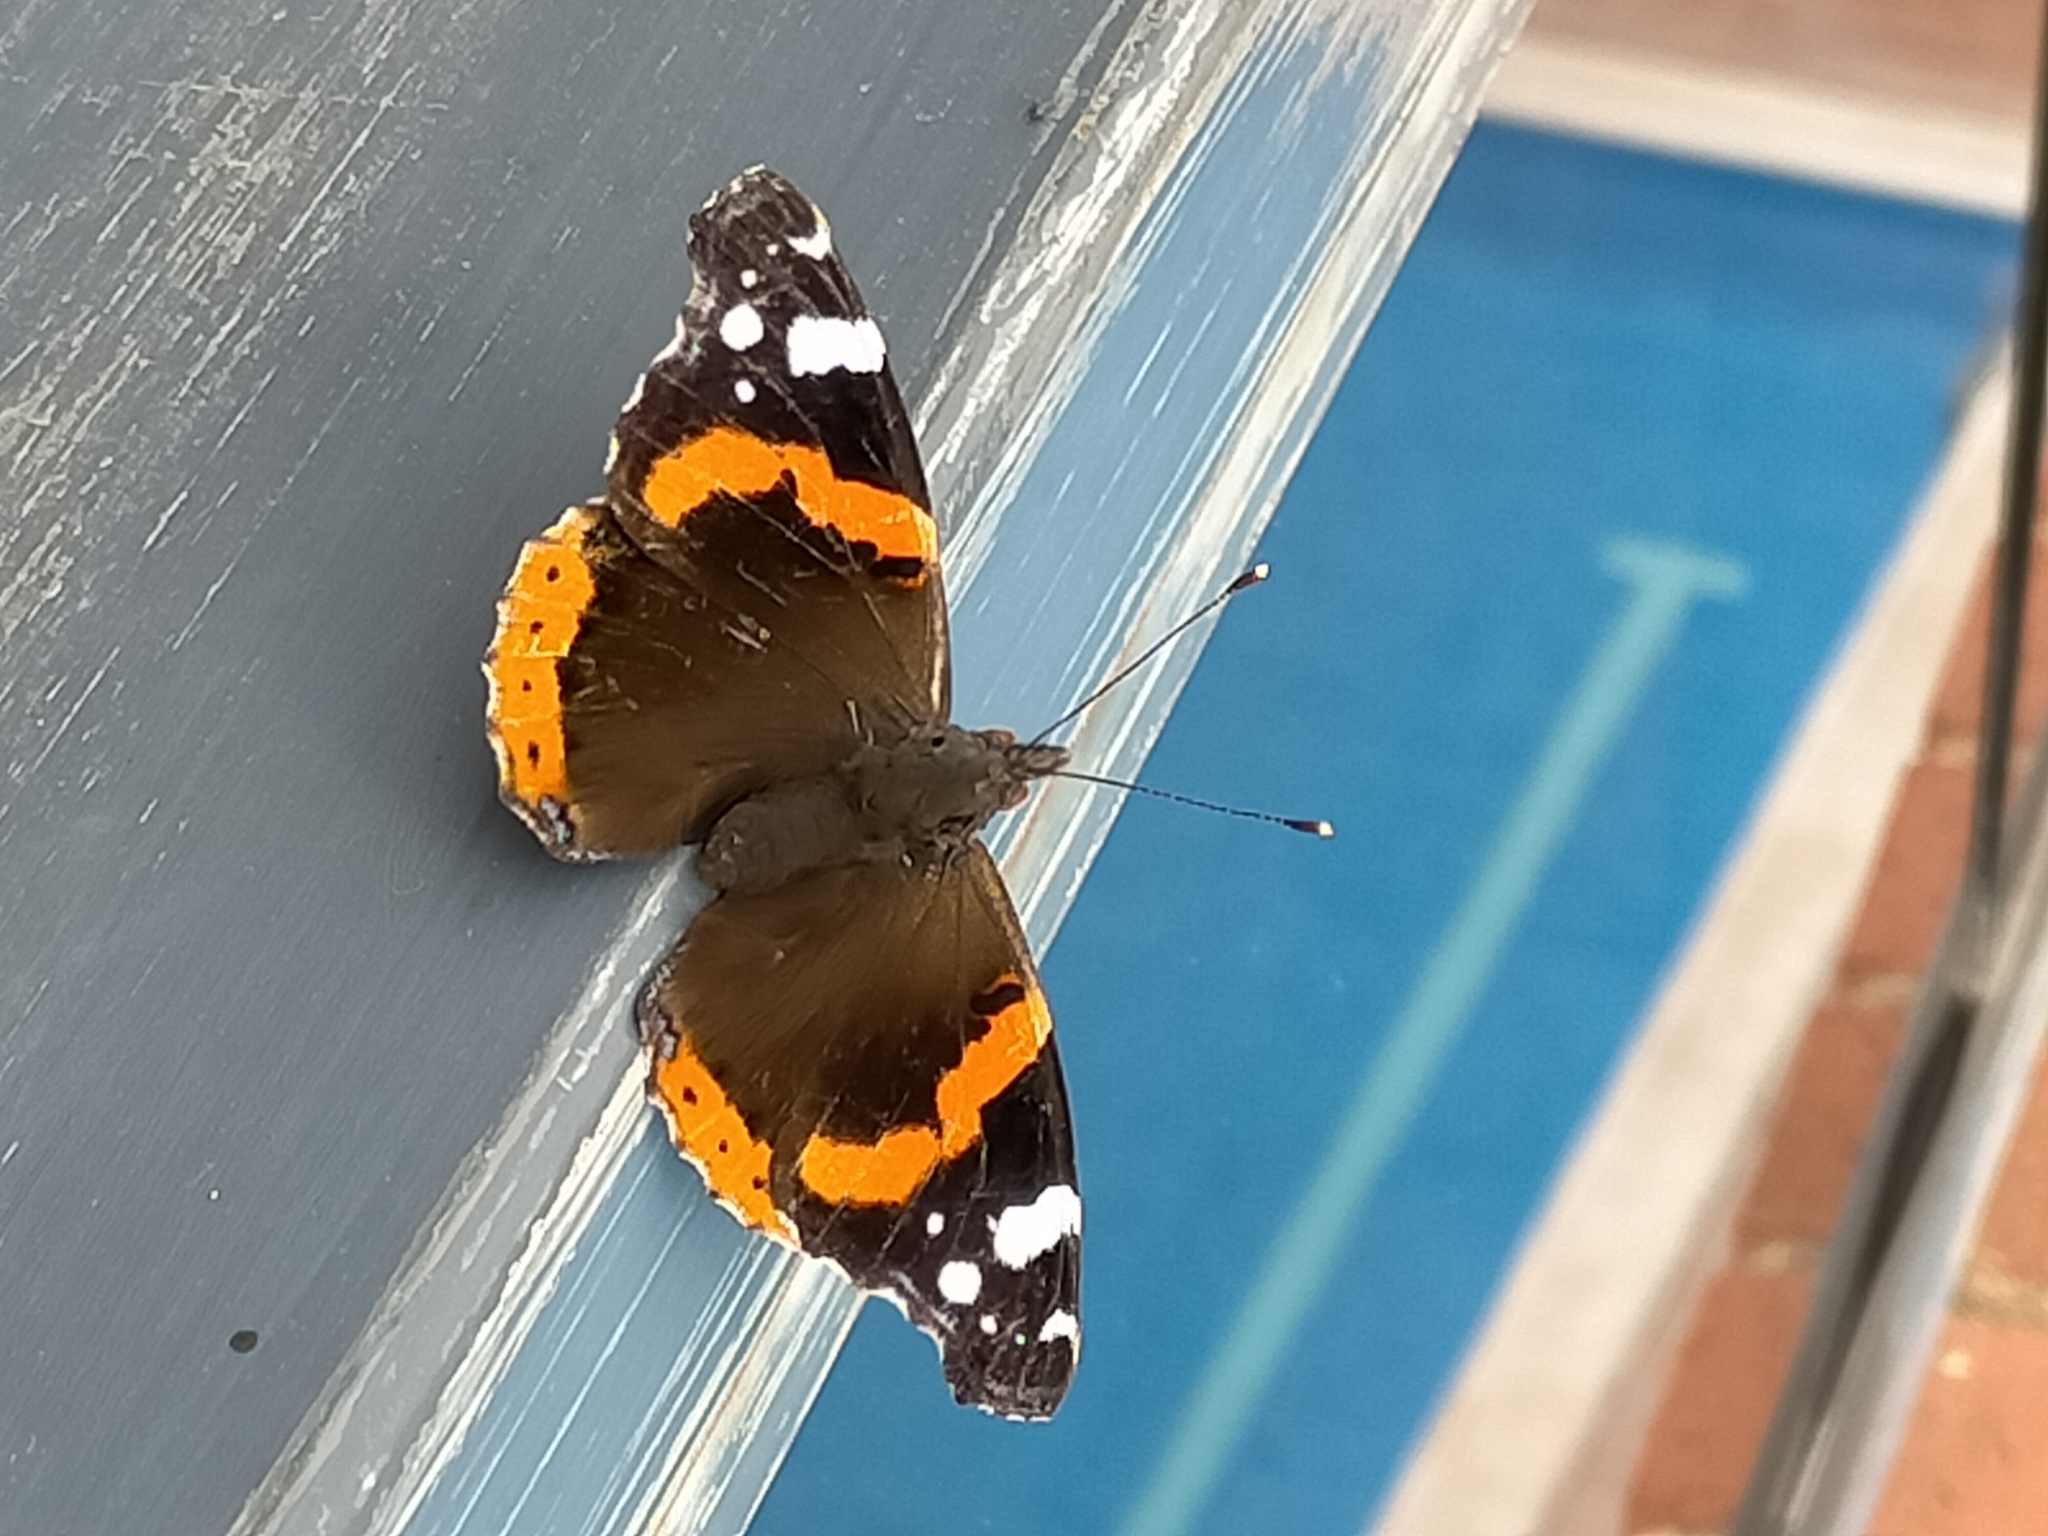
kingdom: Animalia
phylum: Arthropoda
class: Insecta
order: Lepidoptera
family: Nymphalidae
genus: Vanessa
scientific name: Vanessa atalanta
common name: Red admiral
